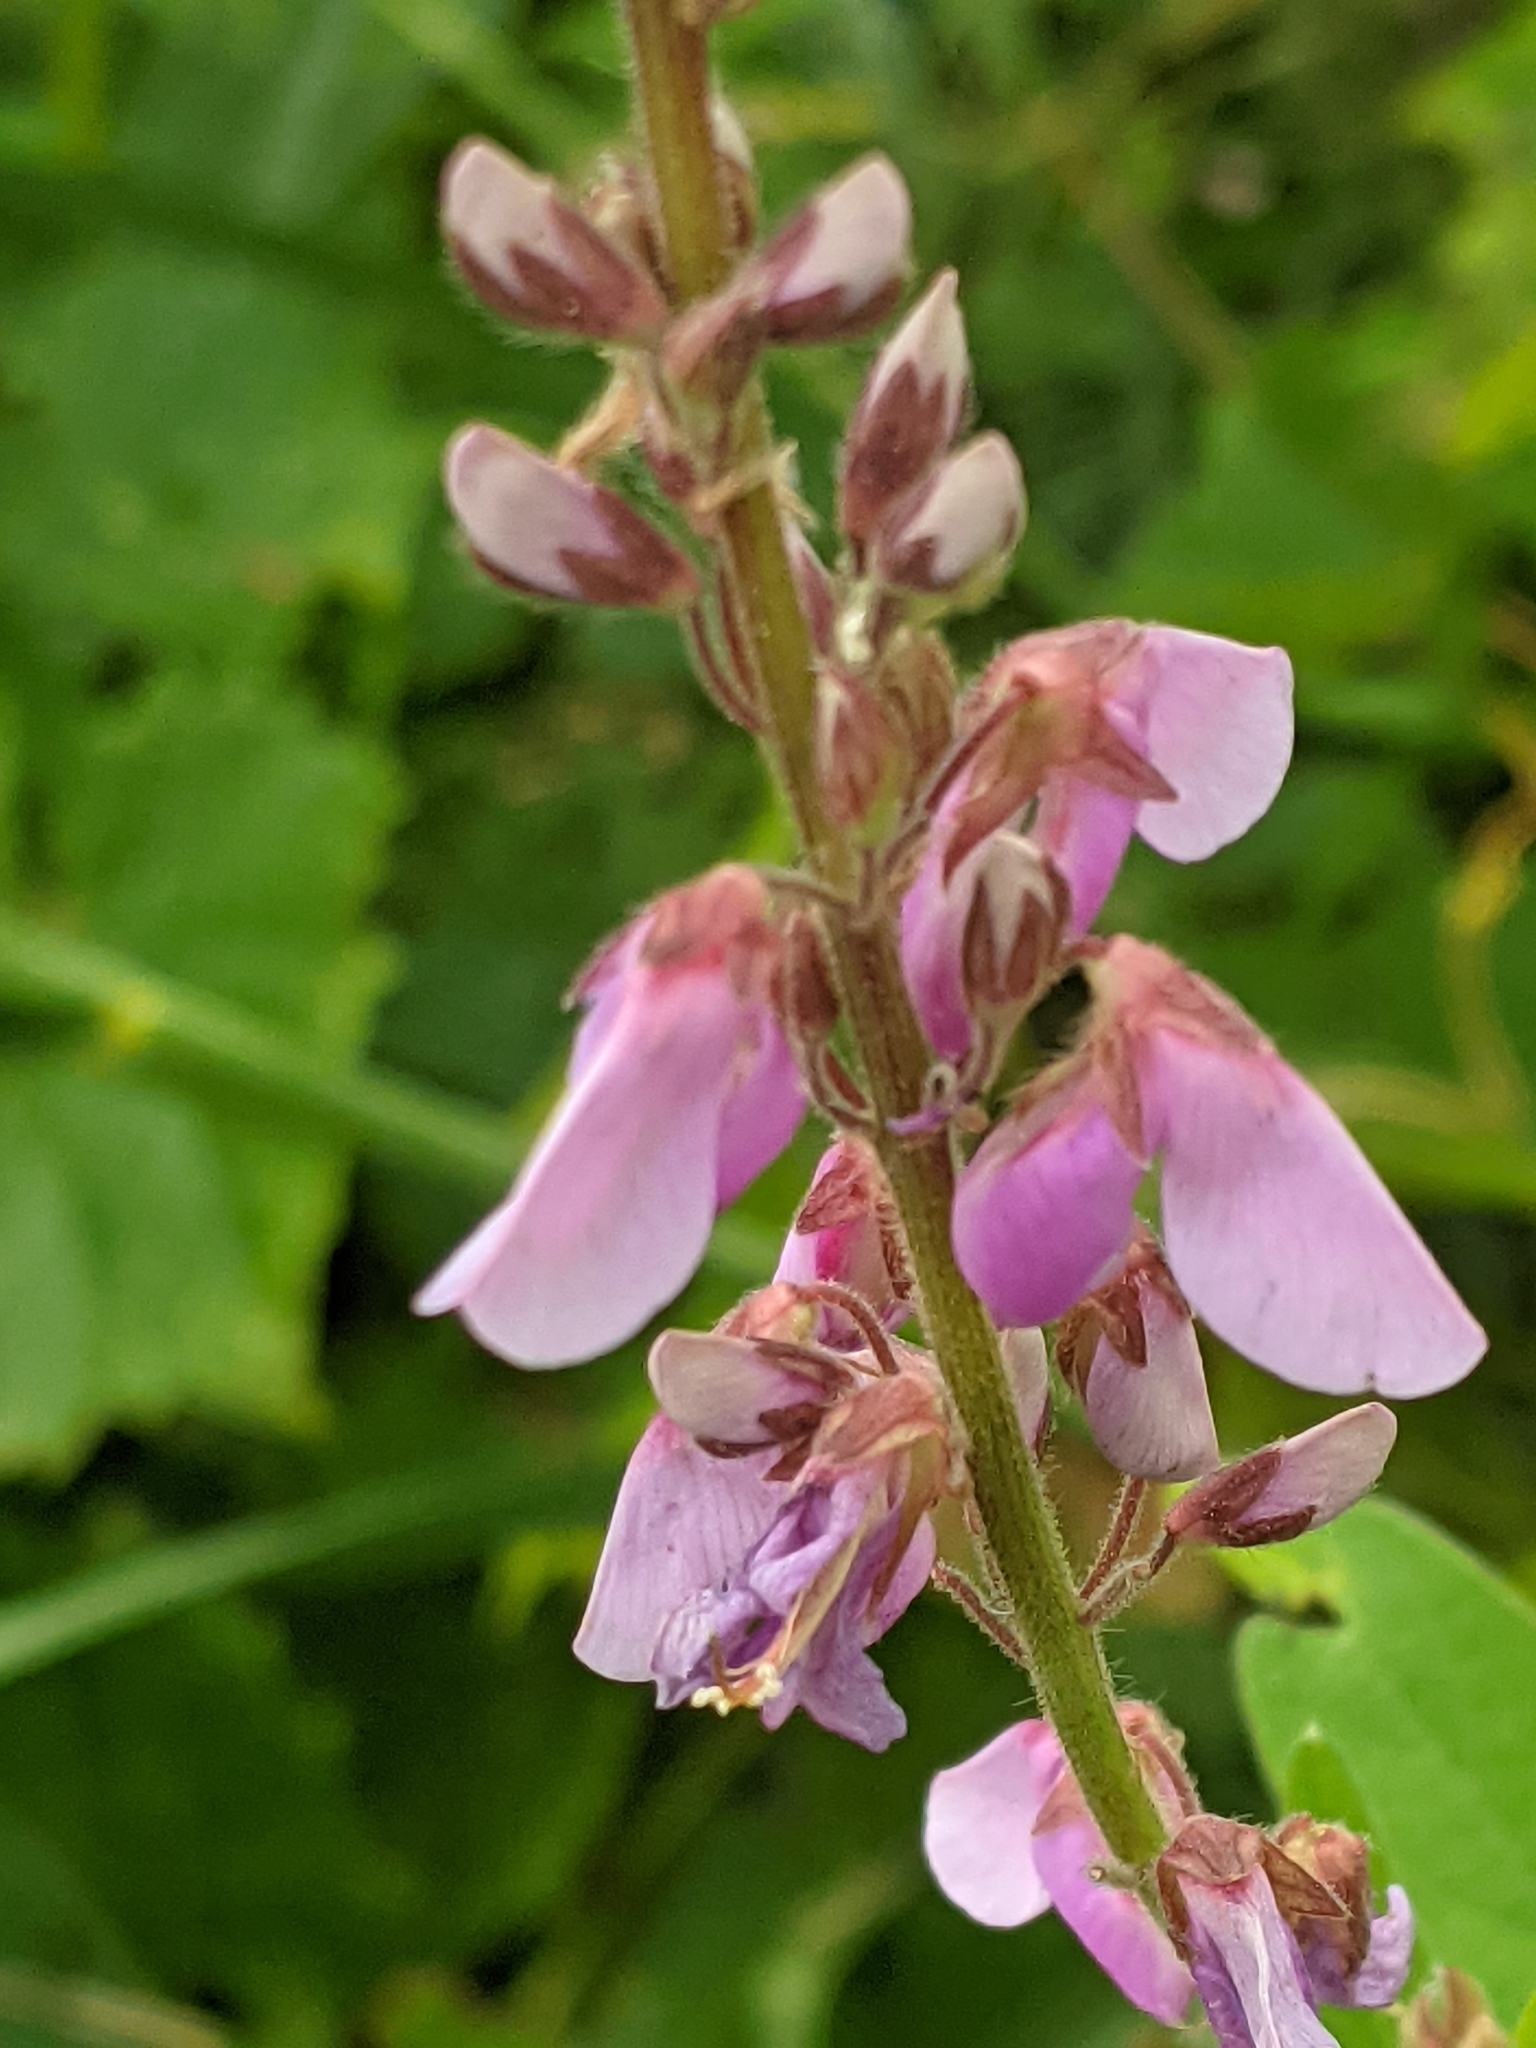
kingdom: Plantae
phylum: Tracheophyta
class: Magnoliopsida
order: Fabales
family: Fabaceae
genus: Desmodium
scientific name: Desmodium canadense
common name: Canada tick-trefoil
